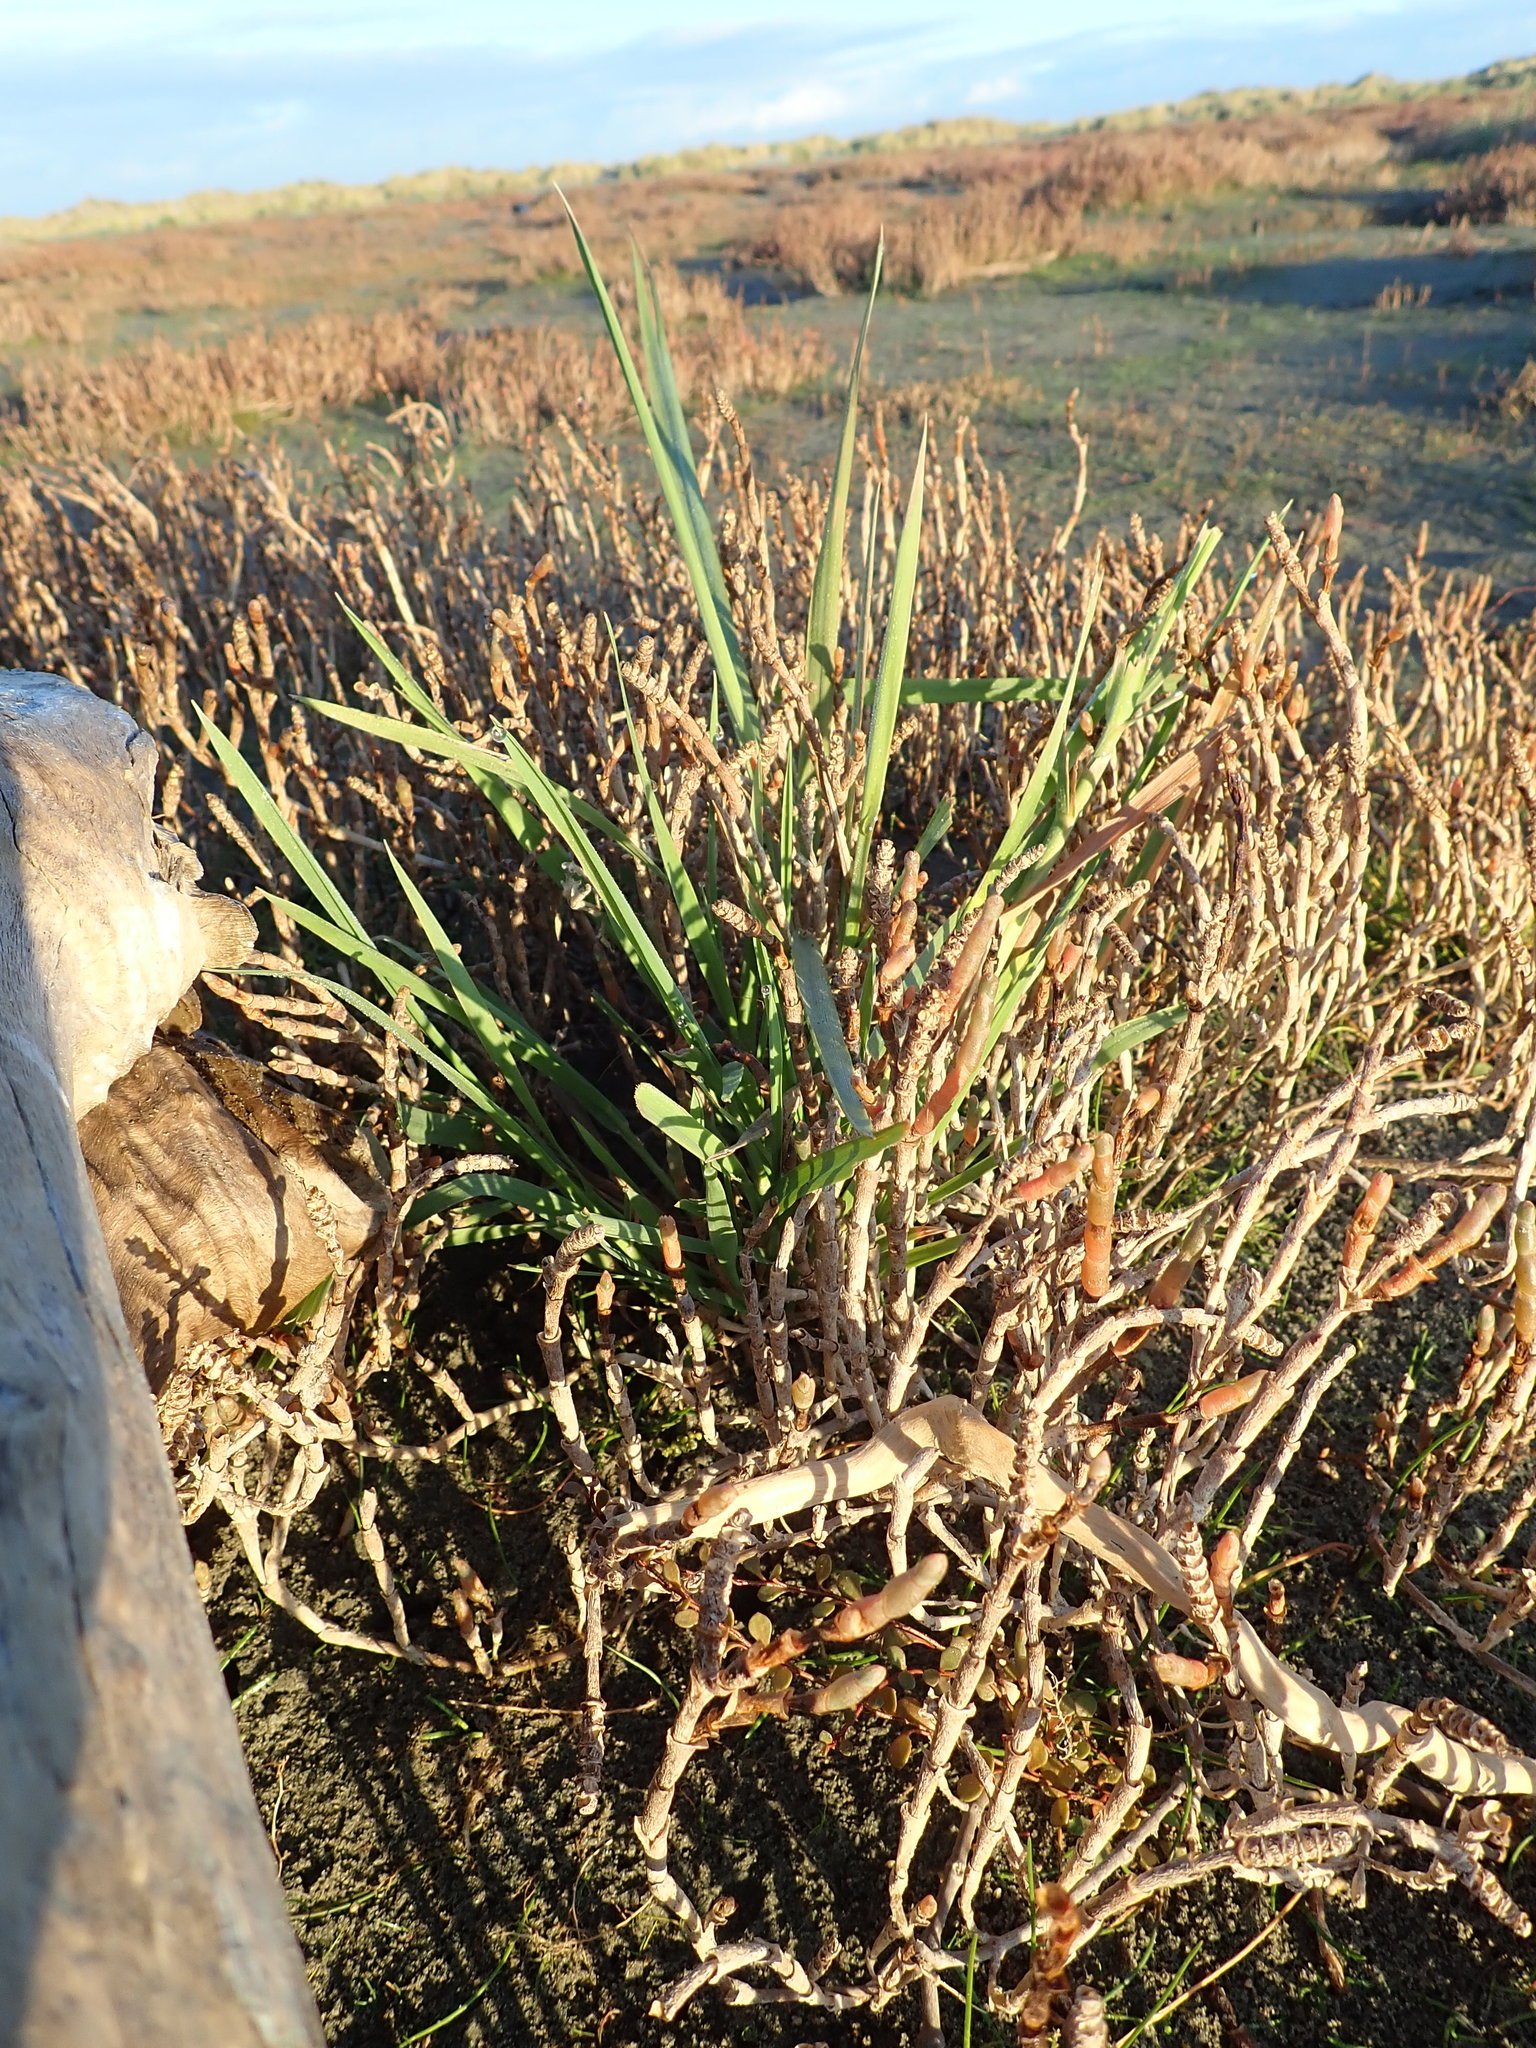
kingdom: Plantae
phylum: Tracheophyta
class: Liliopsida
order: Poales
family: Poaceae
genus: Lachnagrostis
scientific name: Lachnagrostis billardierei
